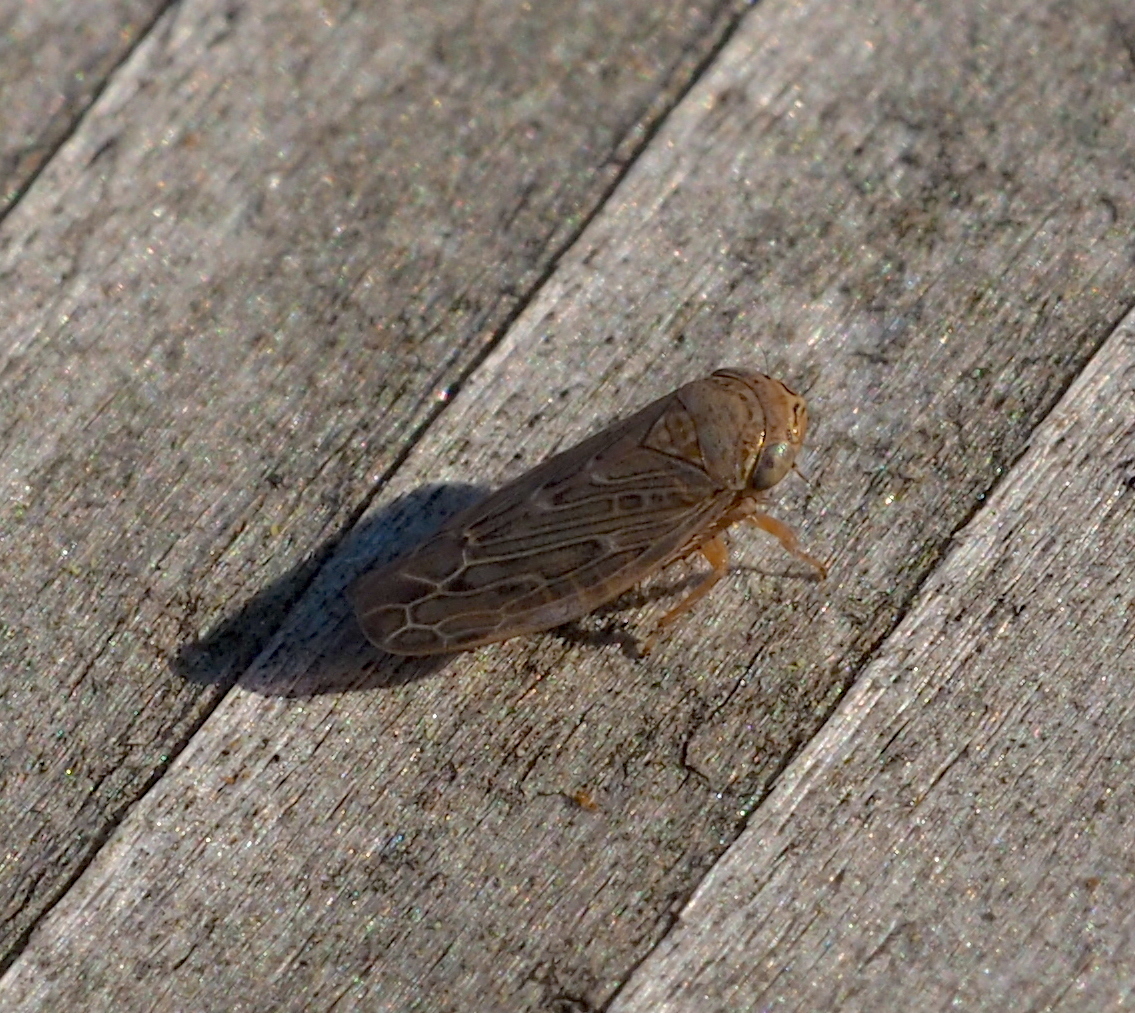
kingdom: Animalia
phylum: Arthropoda
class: Insecta
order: Hemiptera
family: Cicadellidae
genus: Ophiola
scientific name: Ophiola decumana
